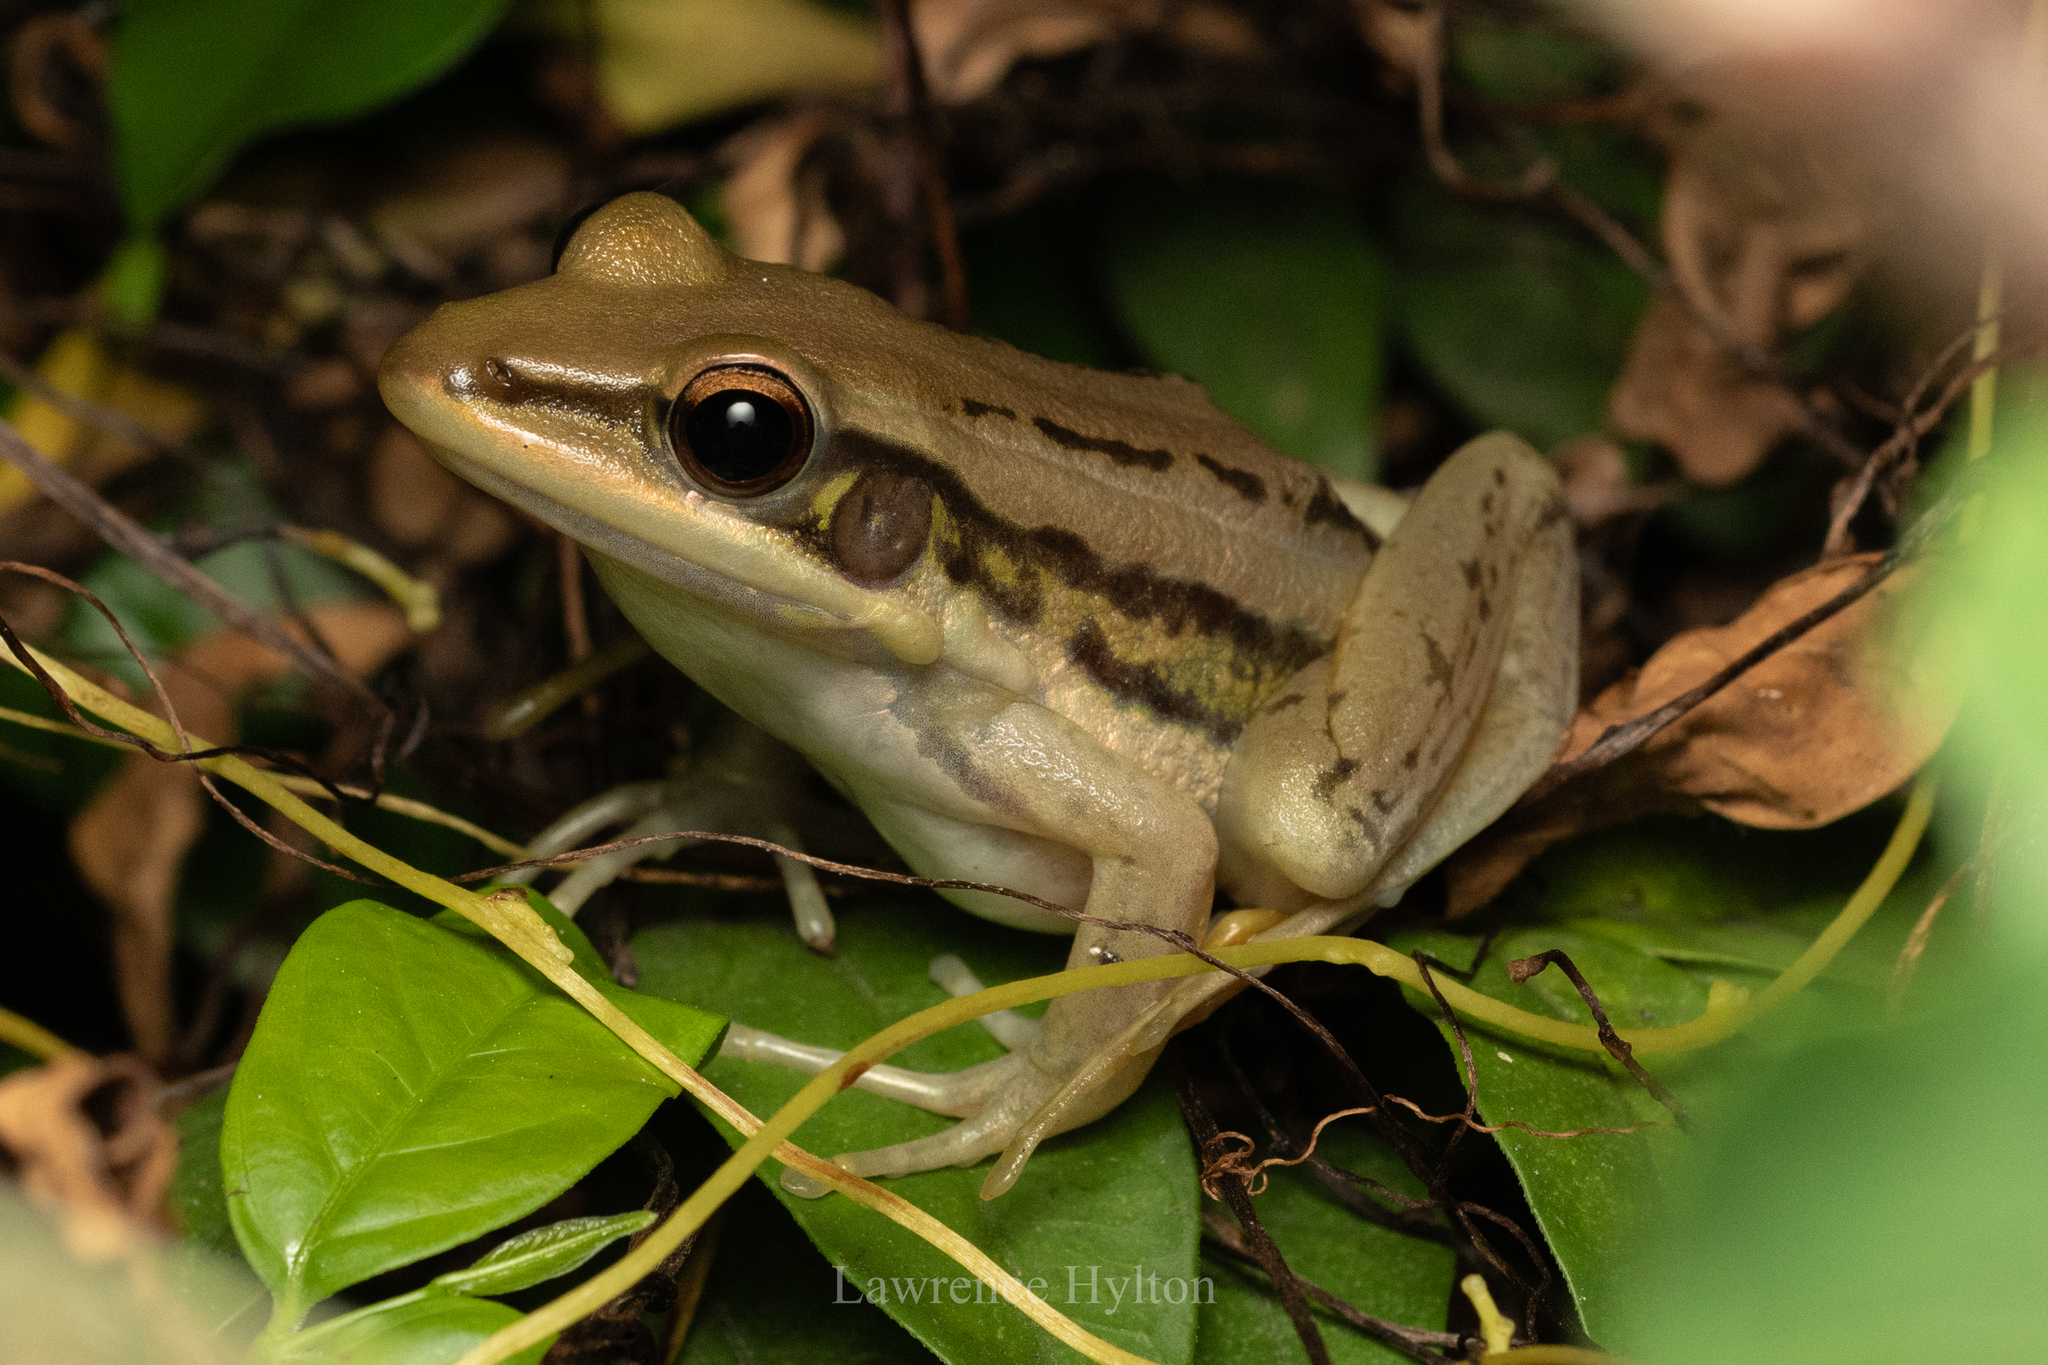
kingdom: Animalia
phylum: Chordata
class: Amphibia
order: Anura
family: Ranidae
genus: Hylarana
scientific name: Hylarana erythraea
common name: Common green frog/green paddy frog/leaf frog
